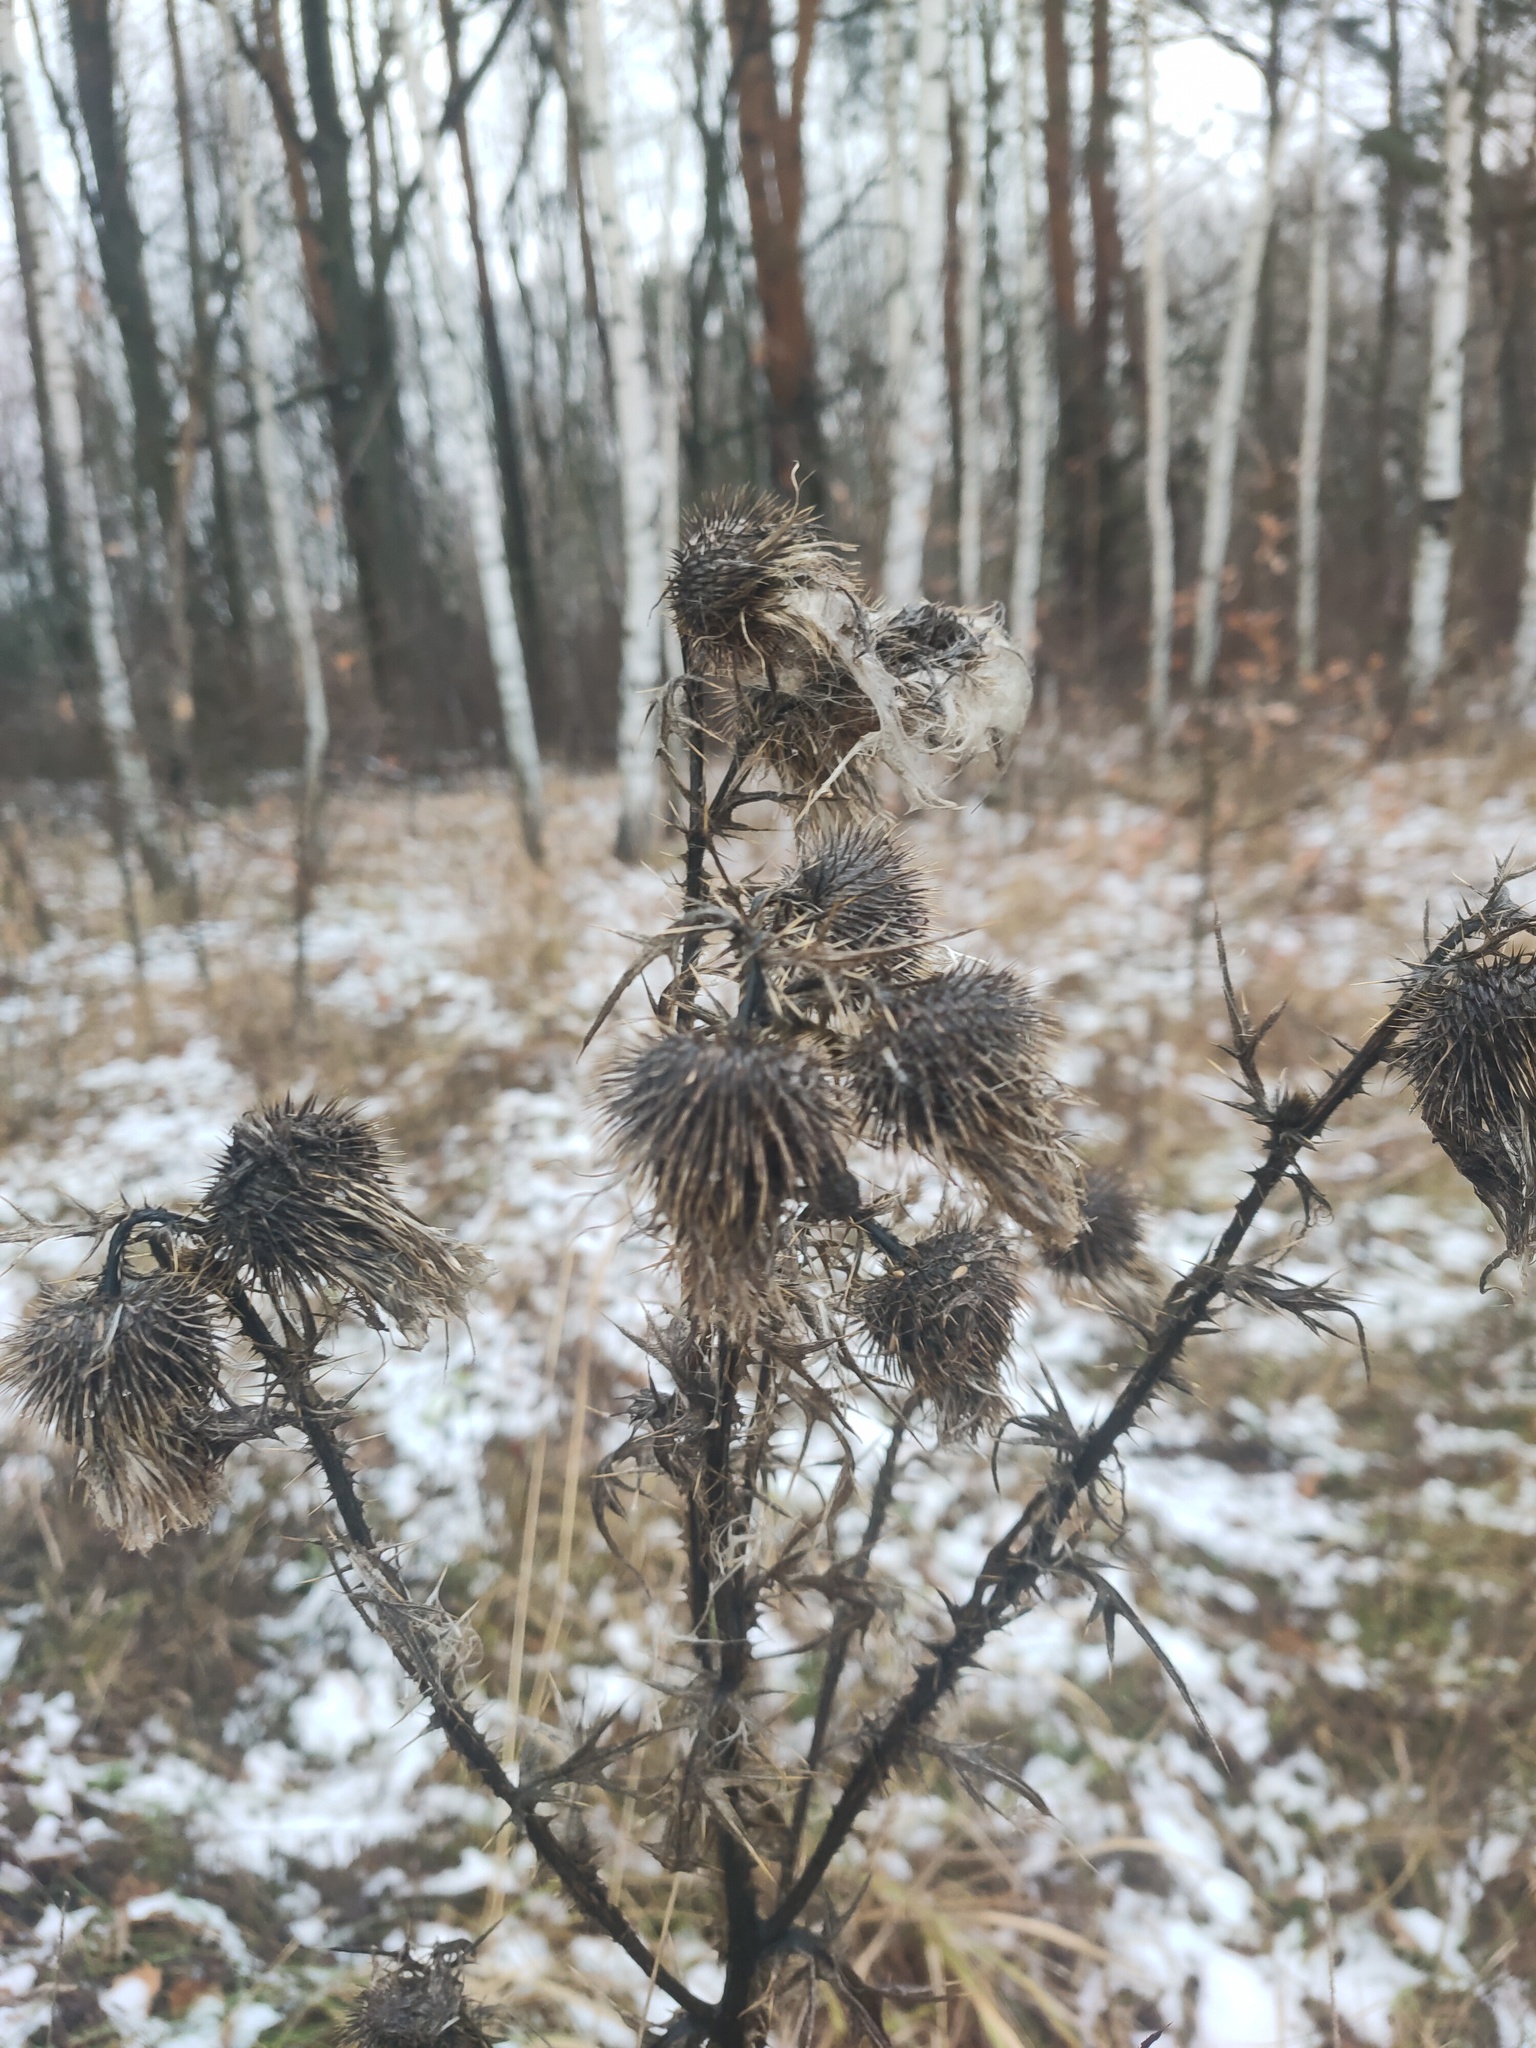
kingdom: Plantae
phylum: Tracheophyta
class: Magnoliopsida
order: Asterales
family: Asteraceae
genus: Cirsium
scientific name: Cirsium vulgare
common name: Bull thistle
